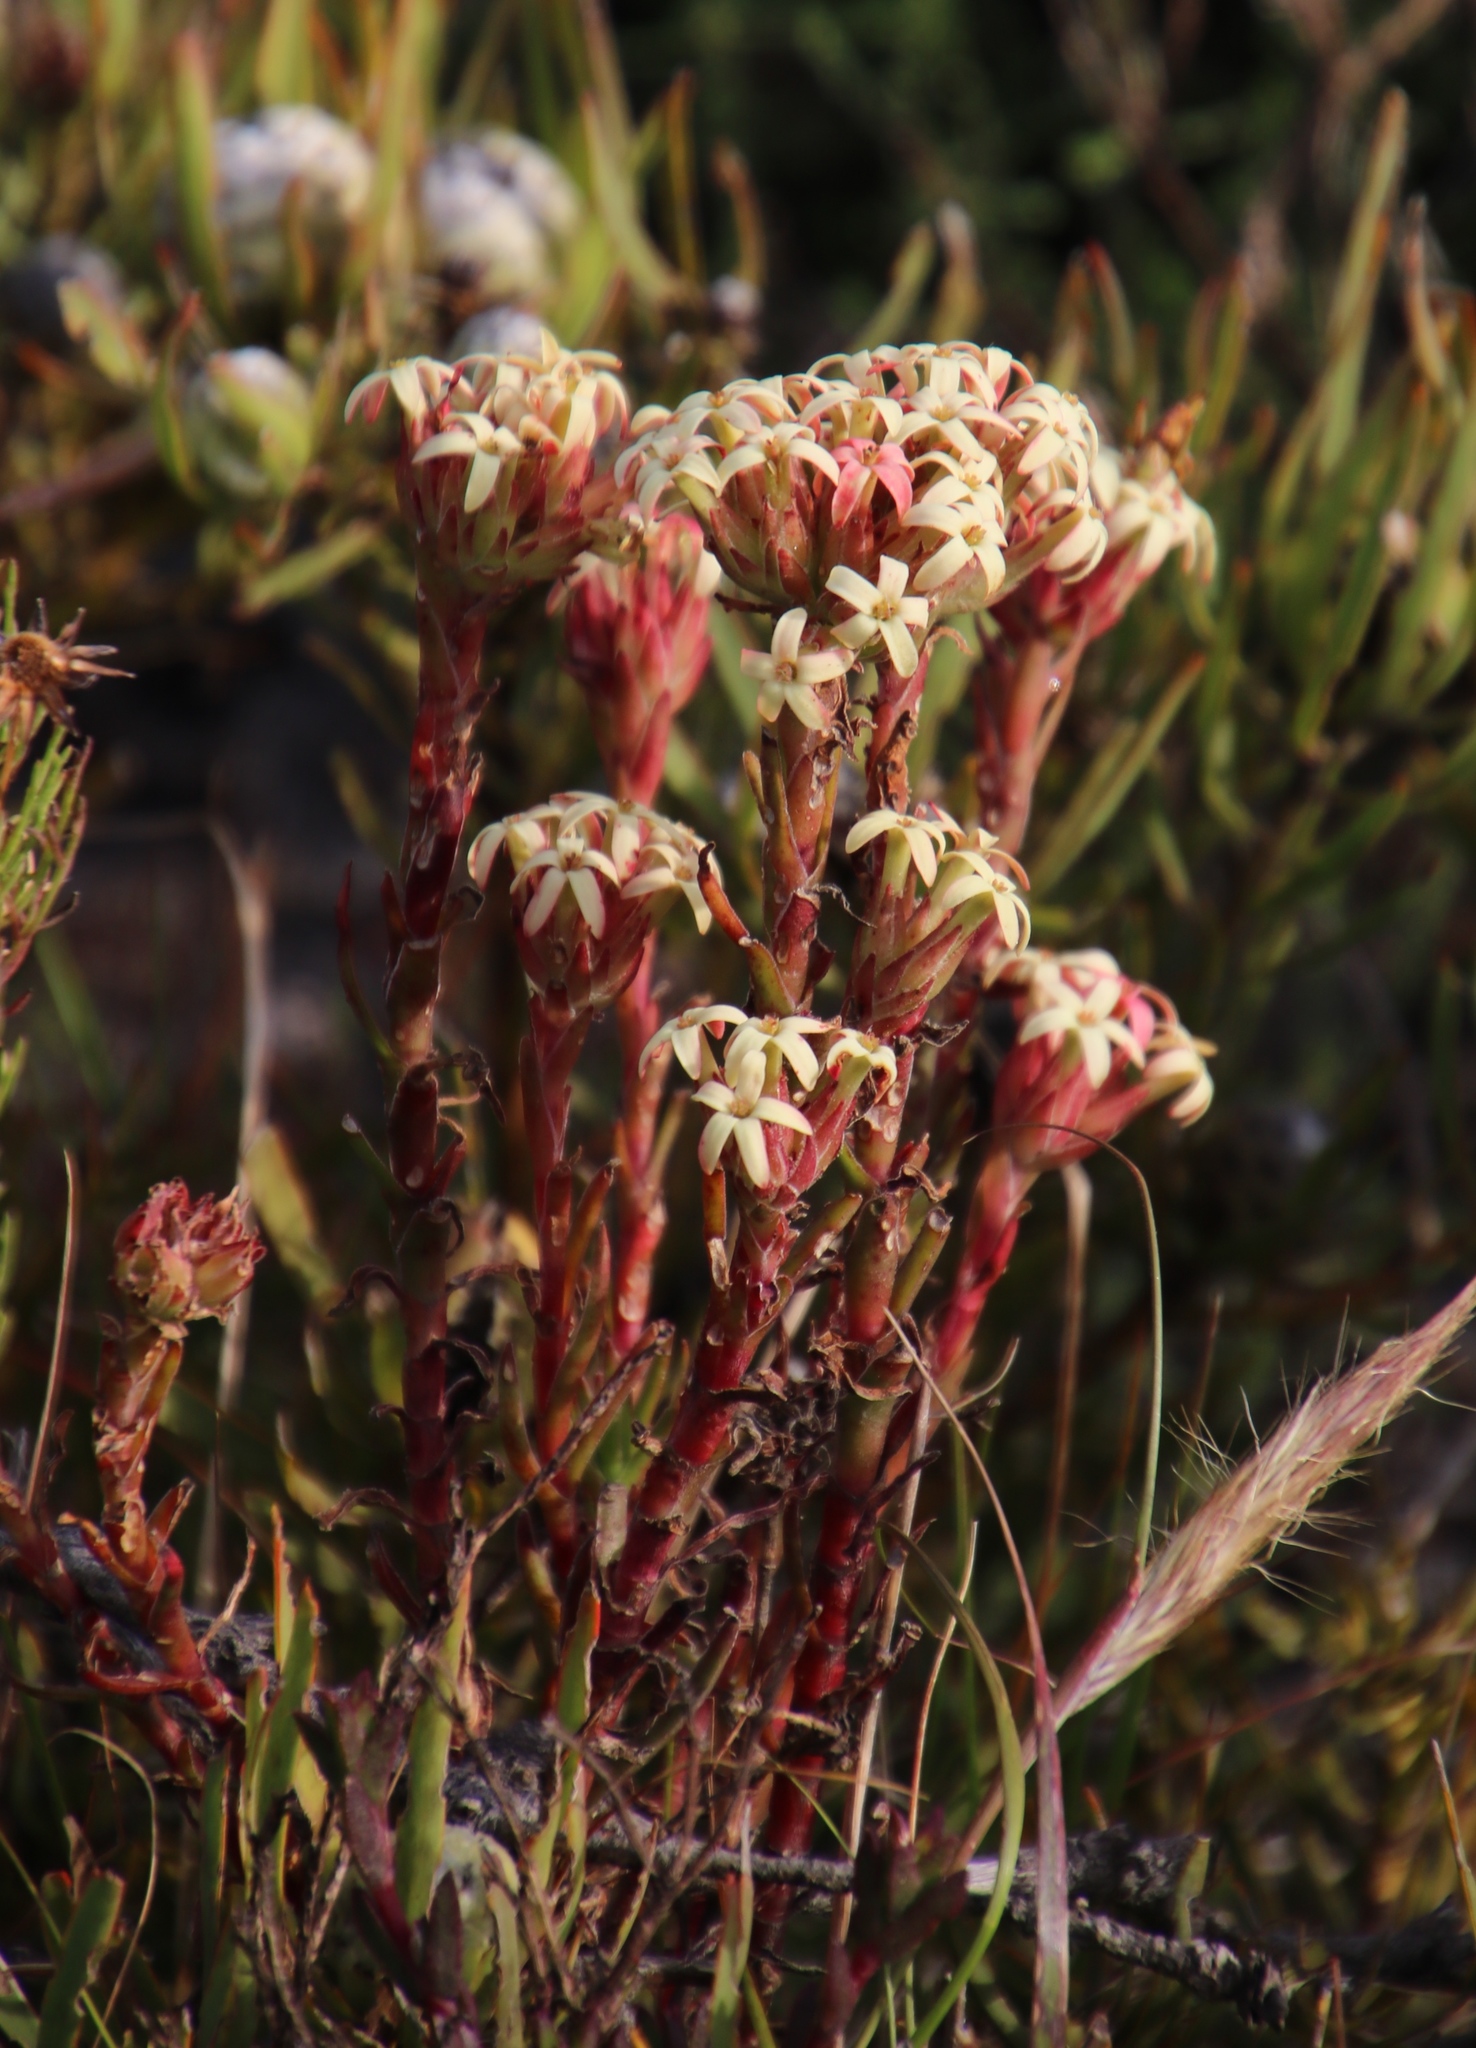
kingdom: Plantae
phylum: Tracheophyta
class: Magnoliopsida
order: Saxifragales
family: Crassulaceae
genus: Crassula
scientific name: Crassula fascicularis
